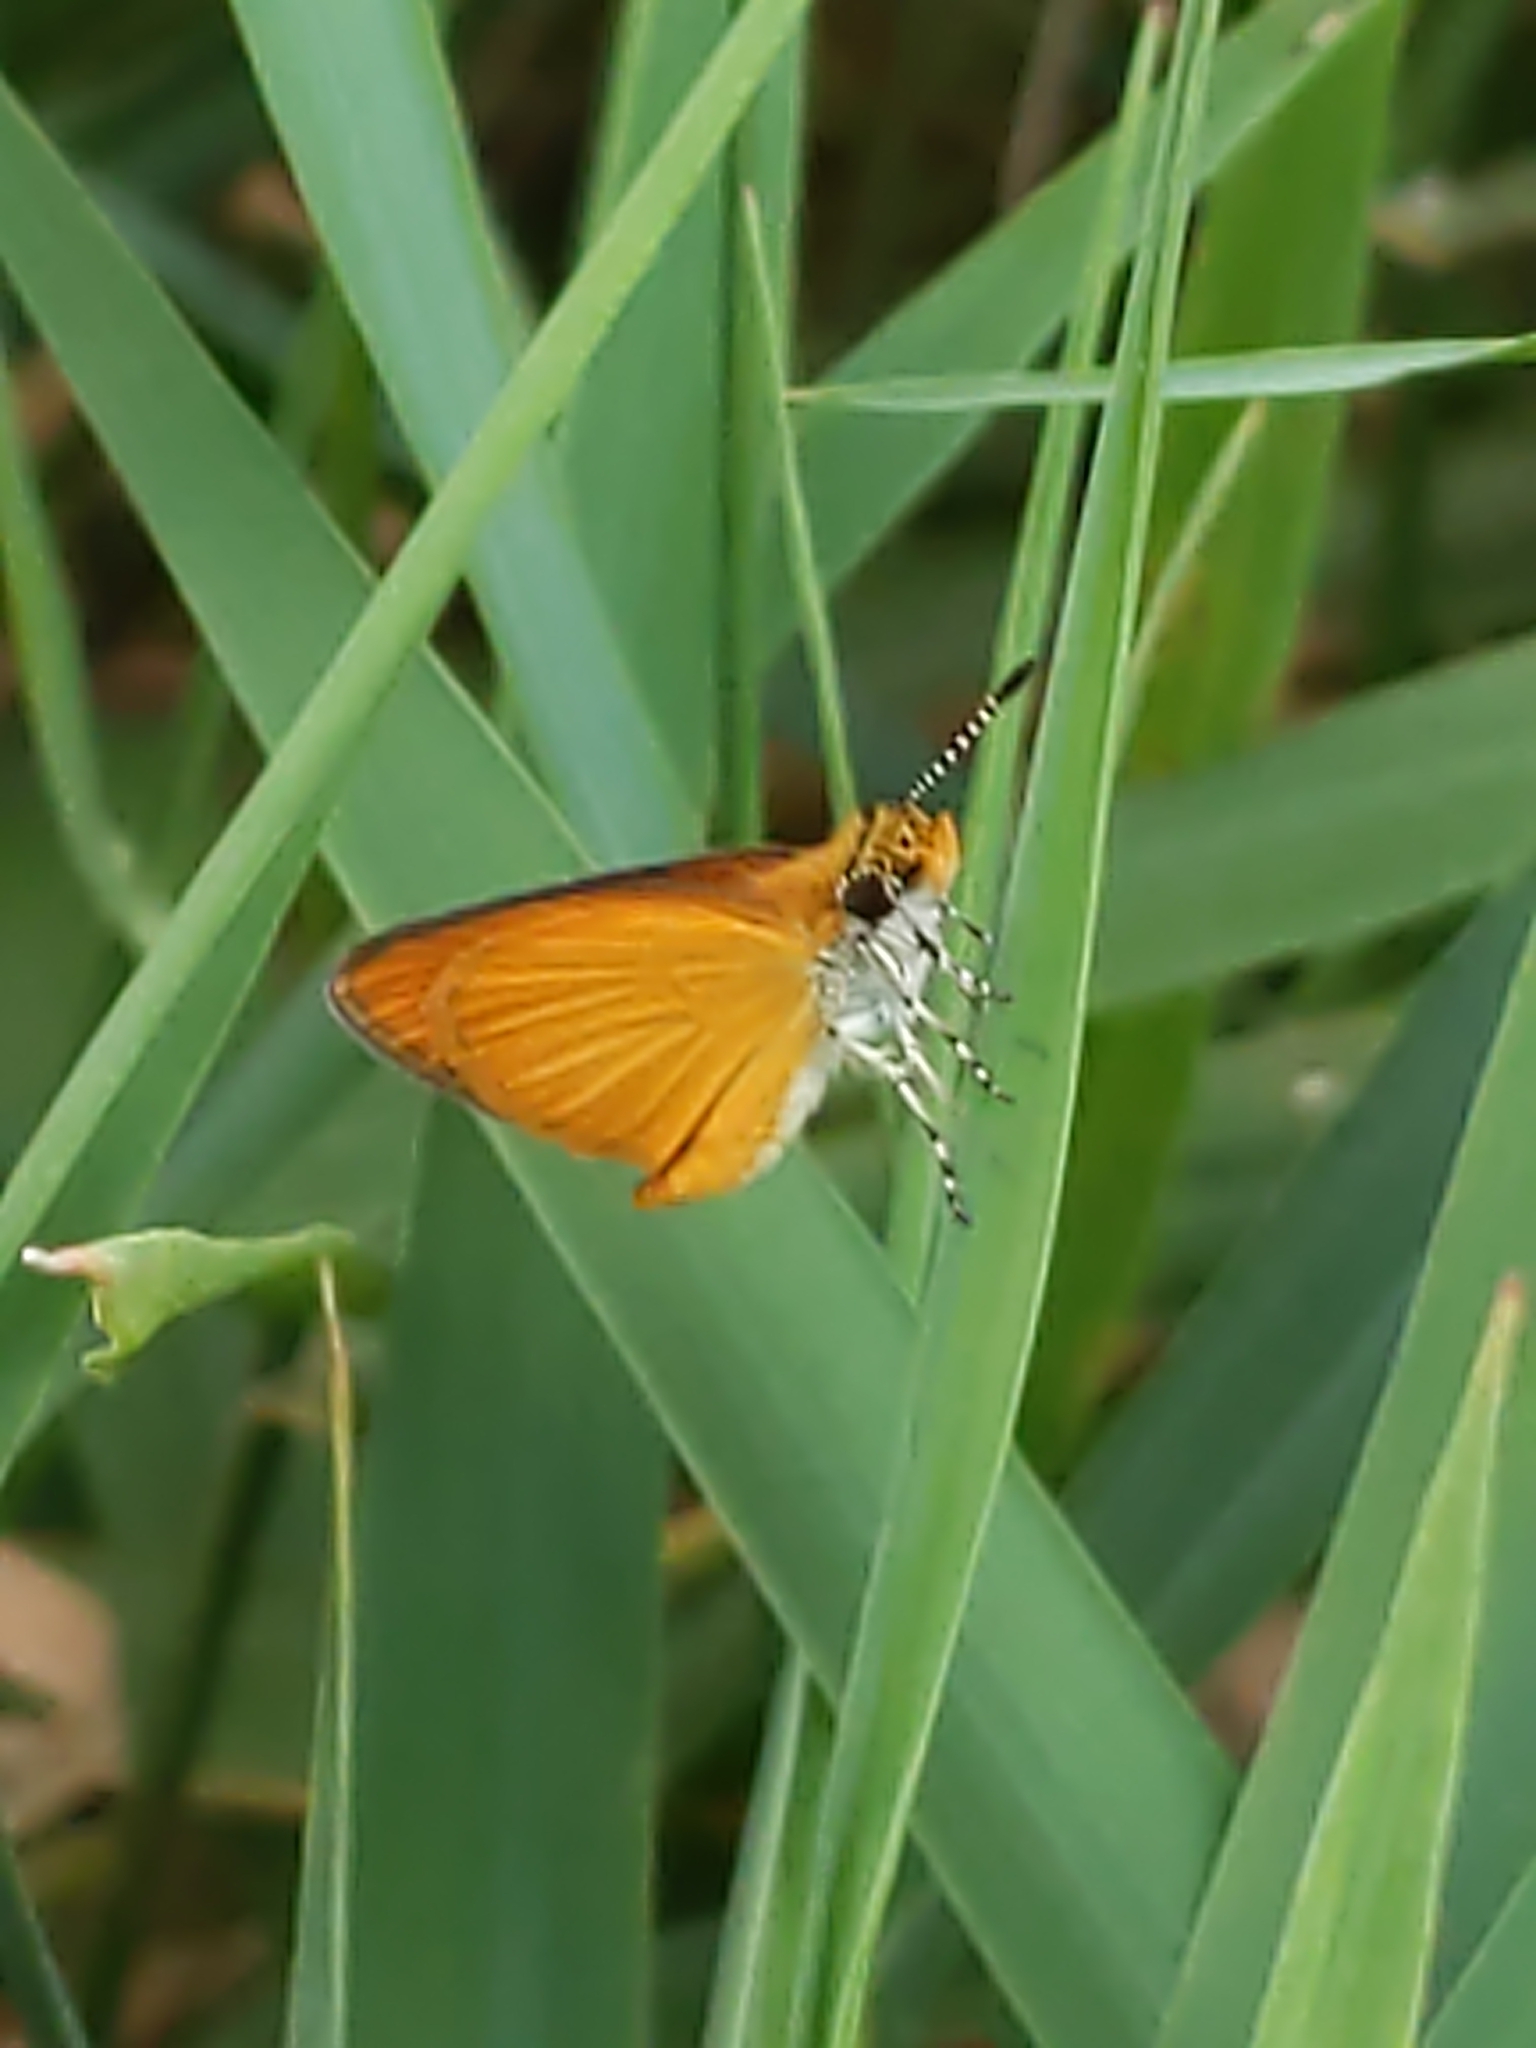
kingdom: Animalia
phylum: Arthropoda
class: Insecta
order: Lepidoptera
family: Hesperiidae
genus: Ancyloxypha
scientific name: Ancyloxypha numitor
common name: Least skipper
